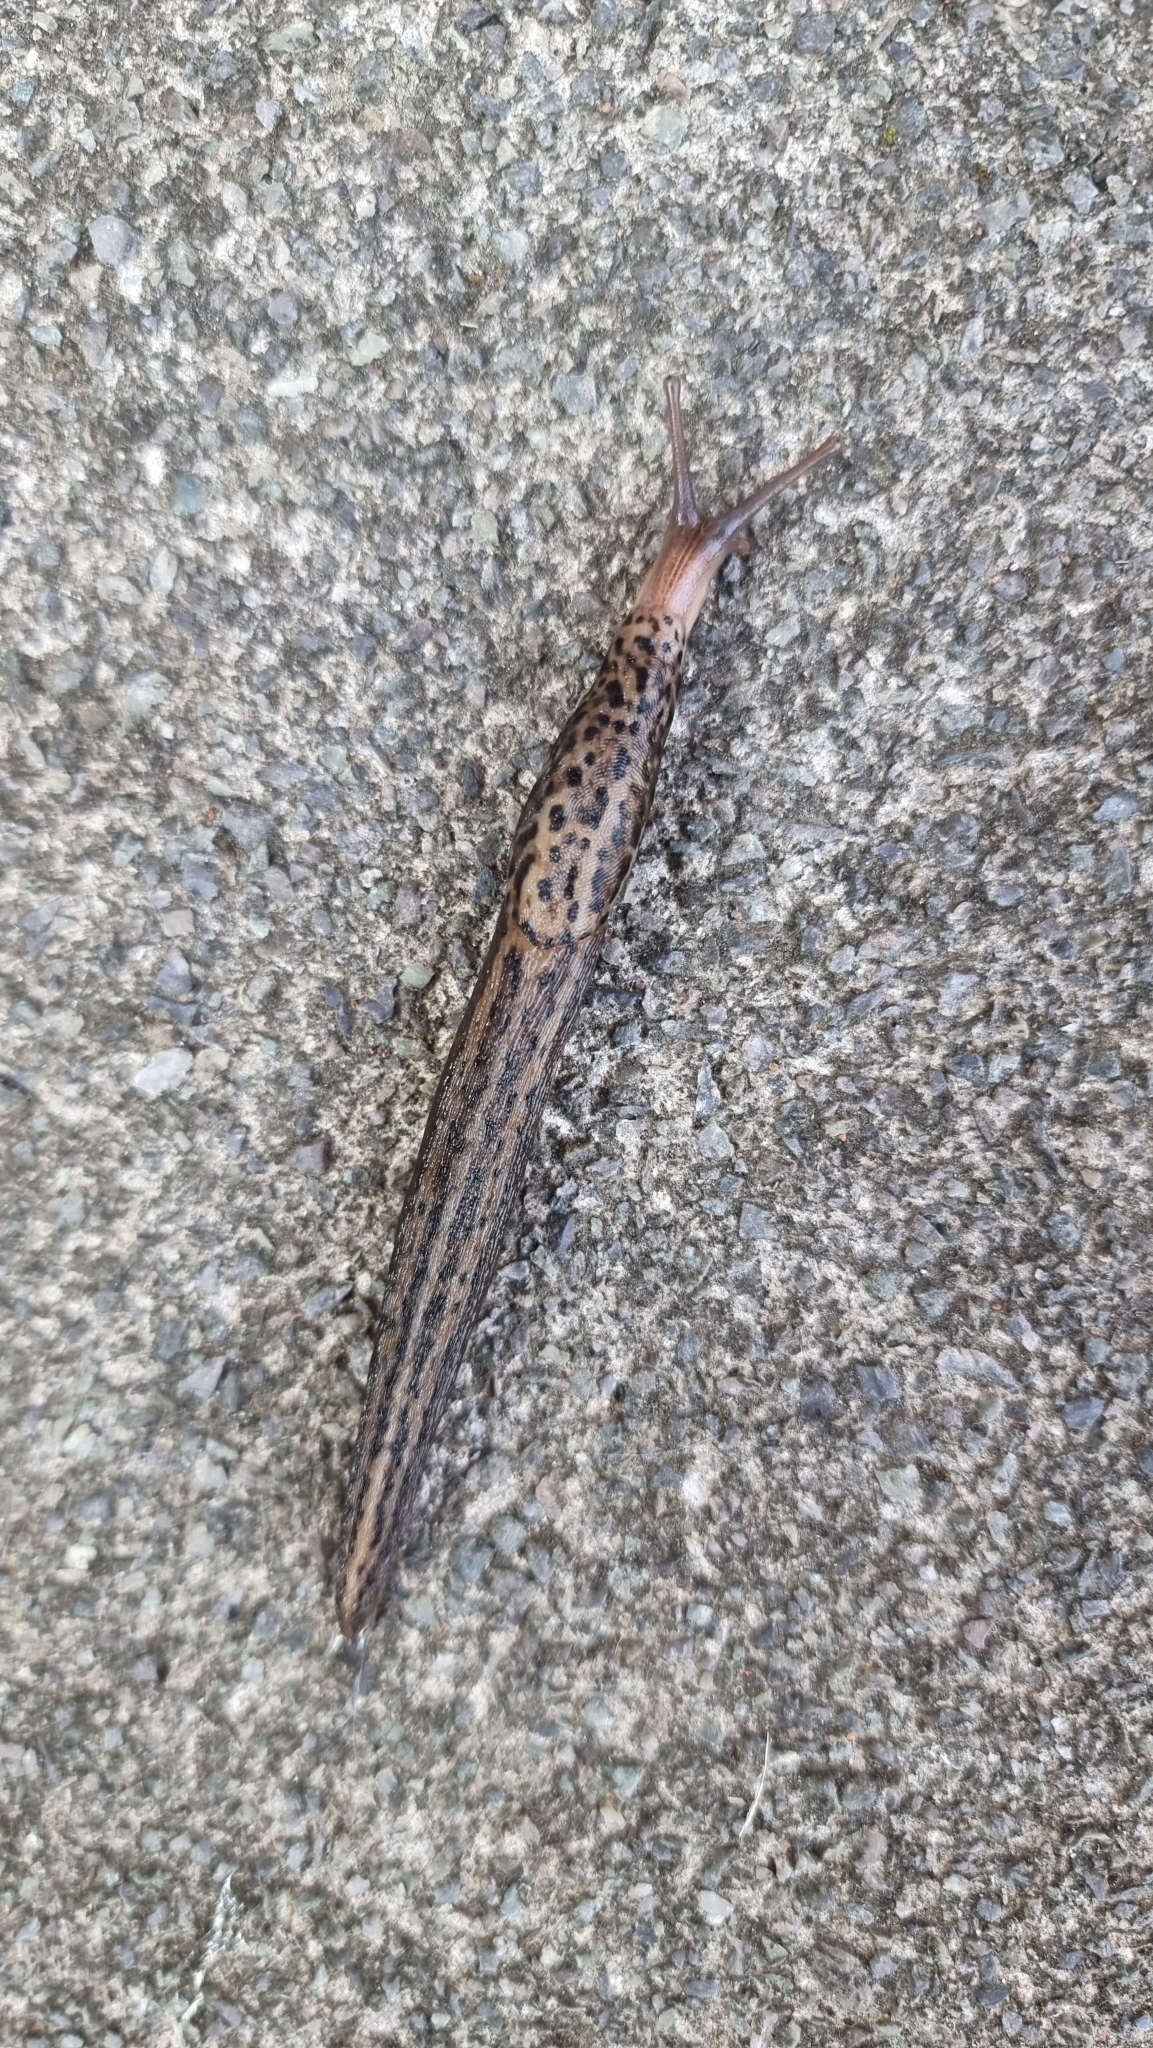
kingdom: Animalia
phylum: Mollusca
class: Gastropoda
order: Stylommatophora
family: Limacidae
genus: Limax
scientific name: Limax maximus
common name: Great grey slug
